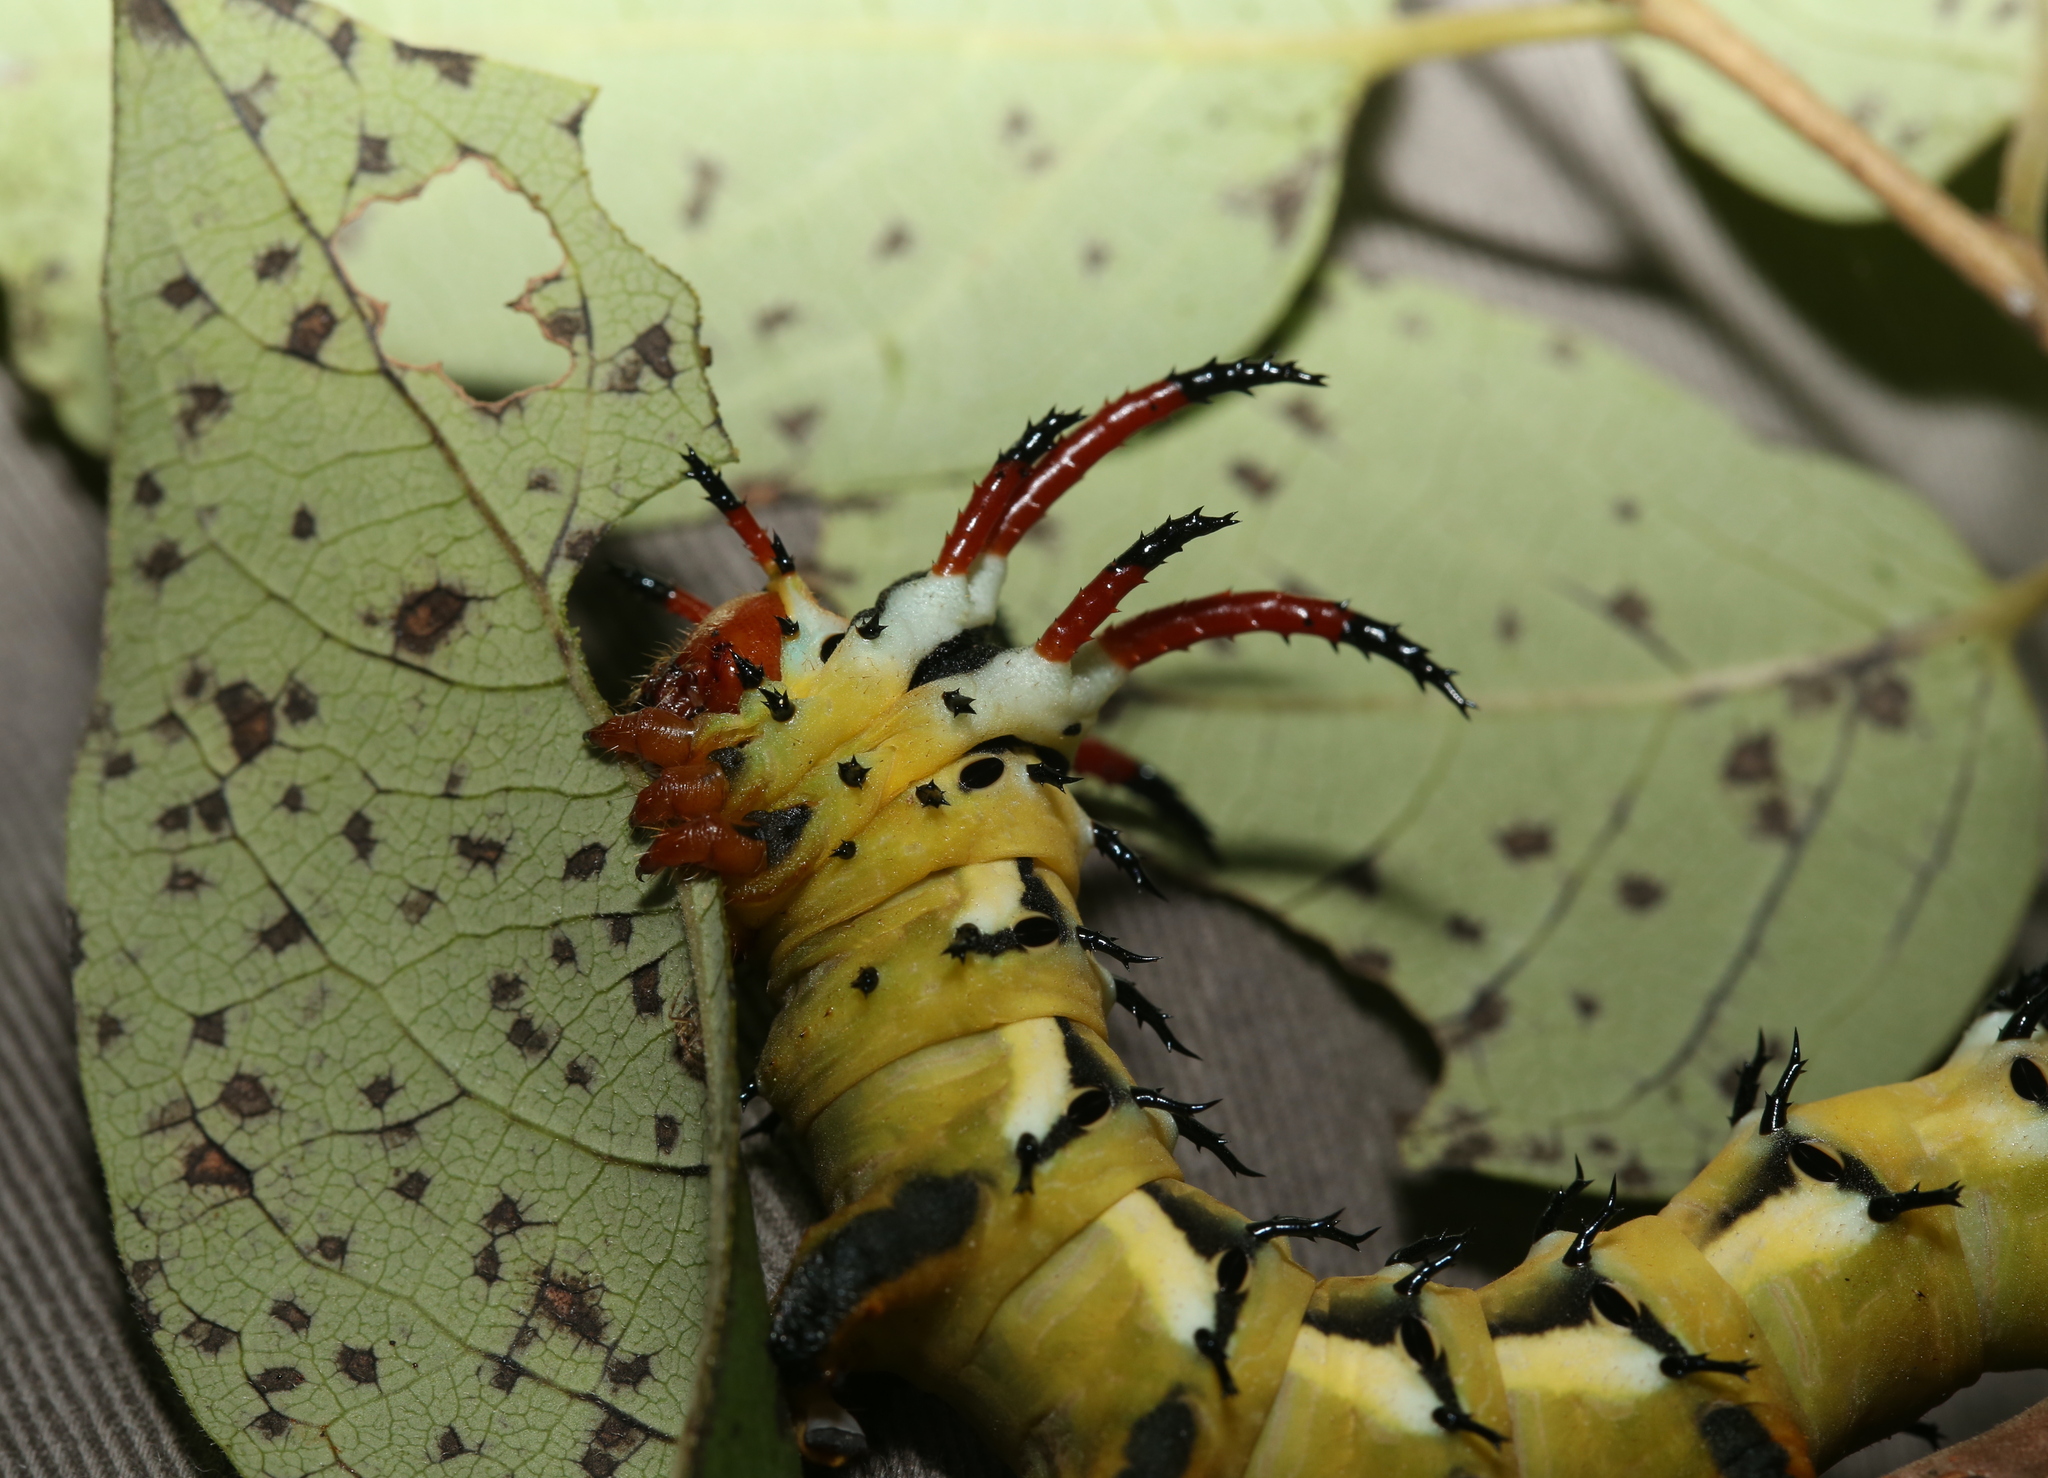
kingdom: Animalia
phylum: Arthropoda
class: Insecta
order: Lepidoptera
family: Saturniidae
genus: Citheronia
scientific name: Citheronia regalis
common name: Hickory horned devil
